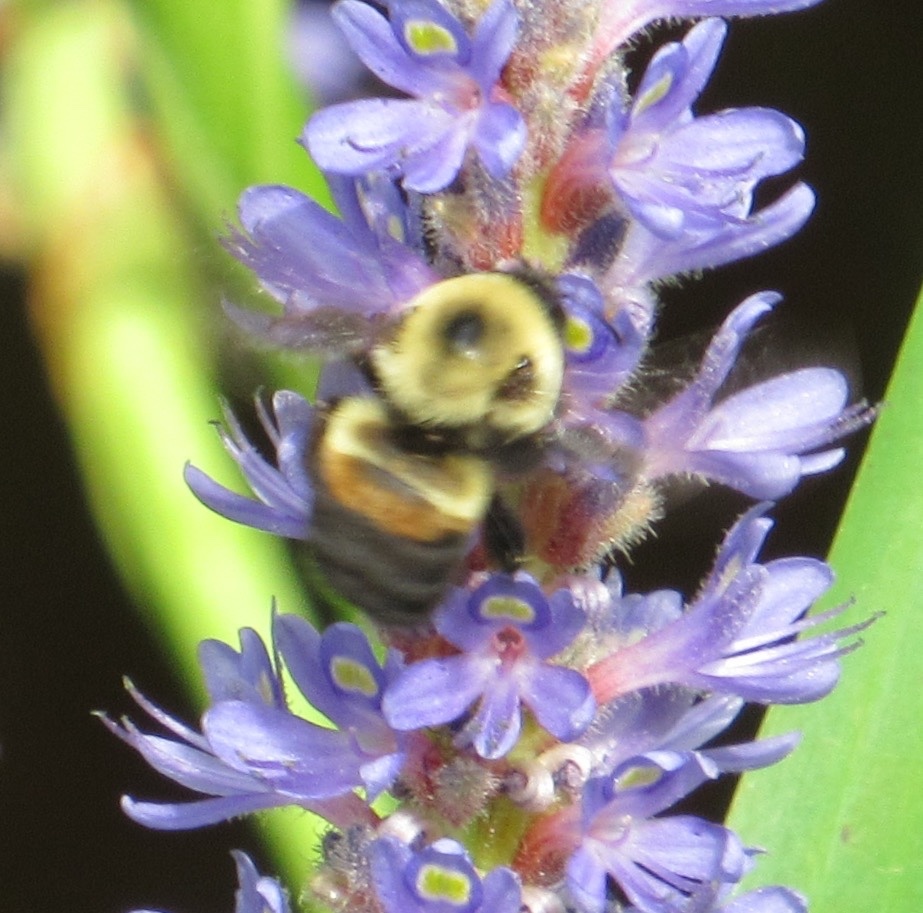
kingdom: Animalia
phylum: Arthropoda
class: Insecta
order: Hymenoptera
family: Apidae
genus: Bombus
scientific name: Bombus griseocollis
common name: Brown-belted bumble bee
